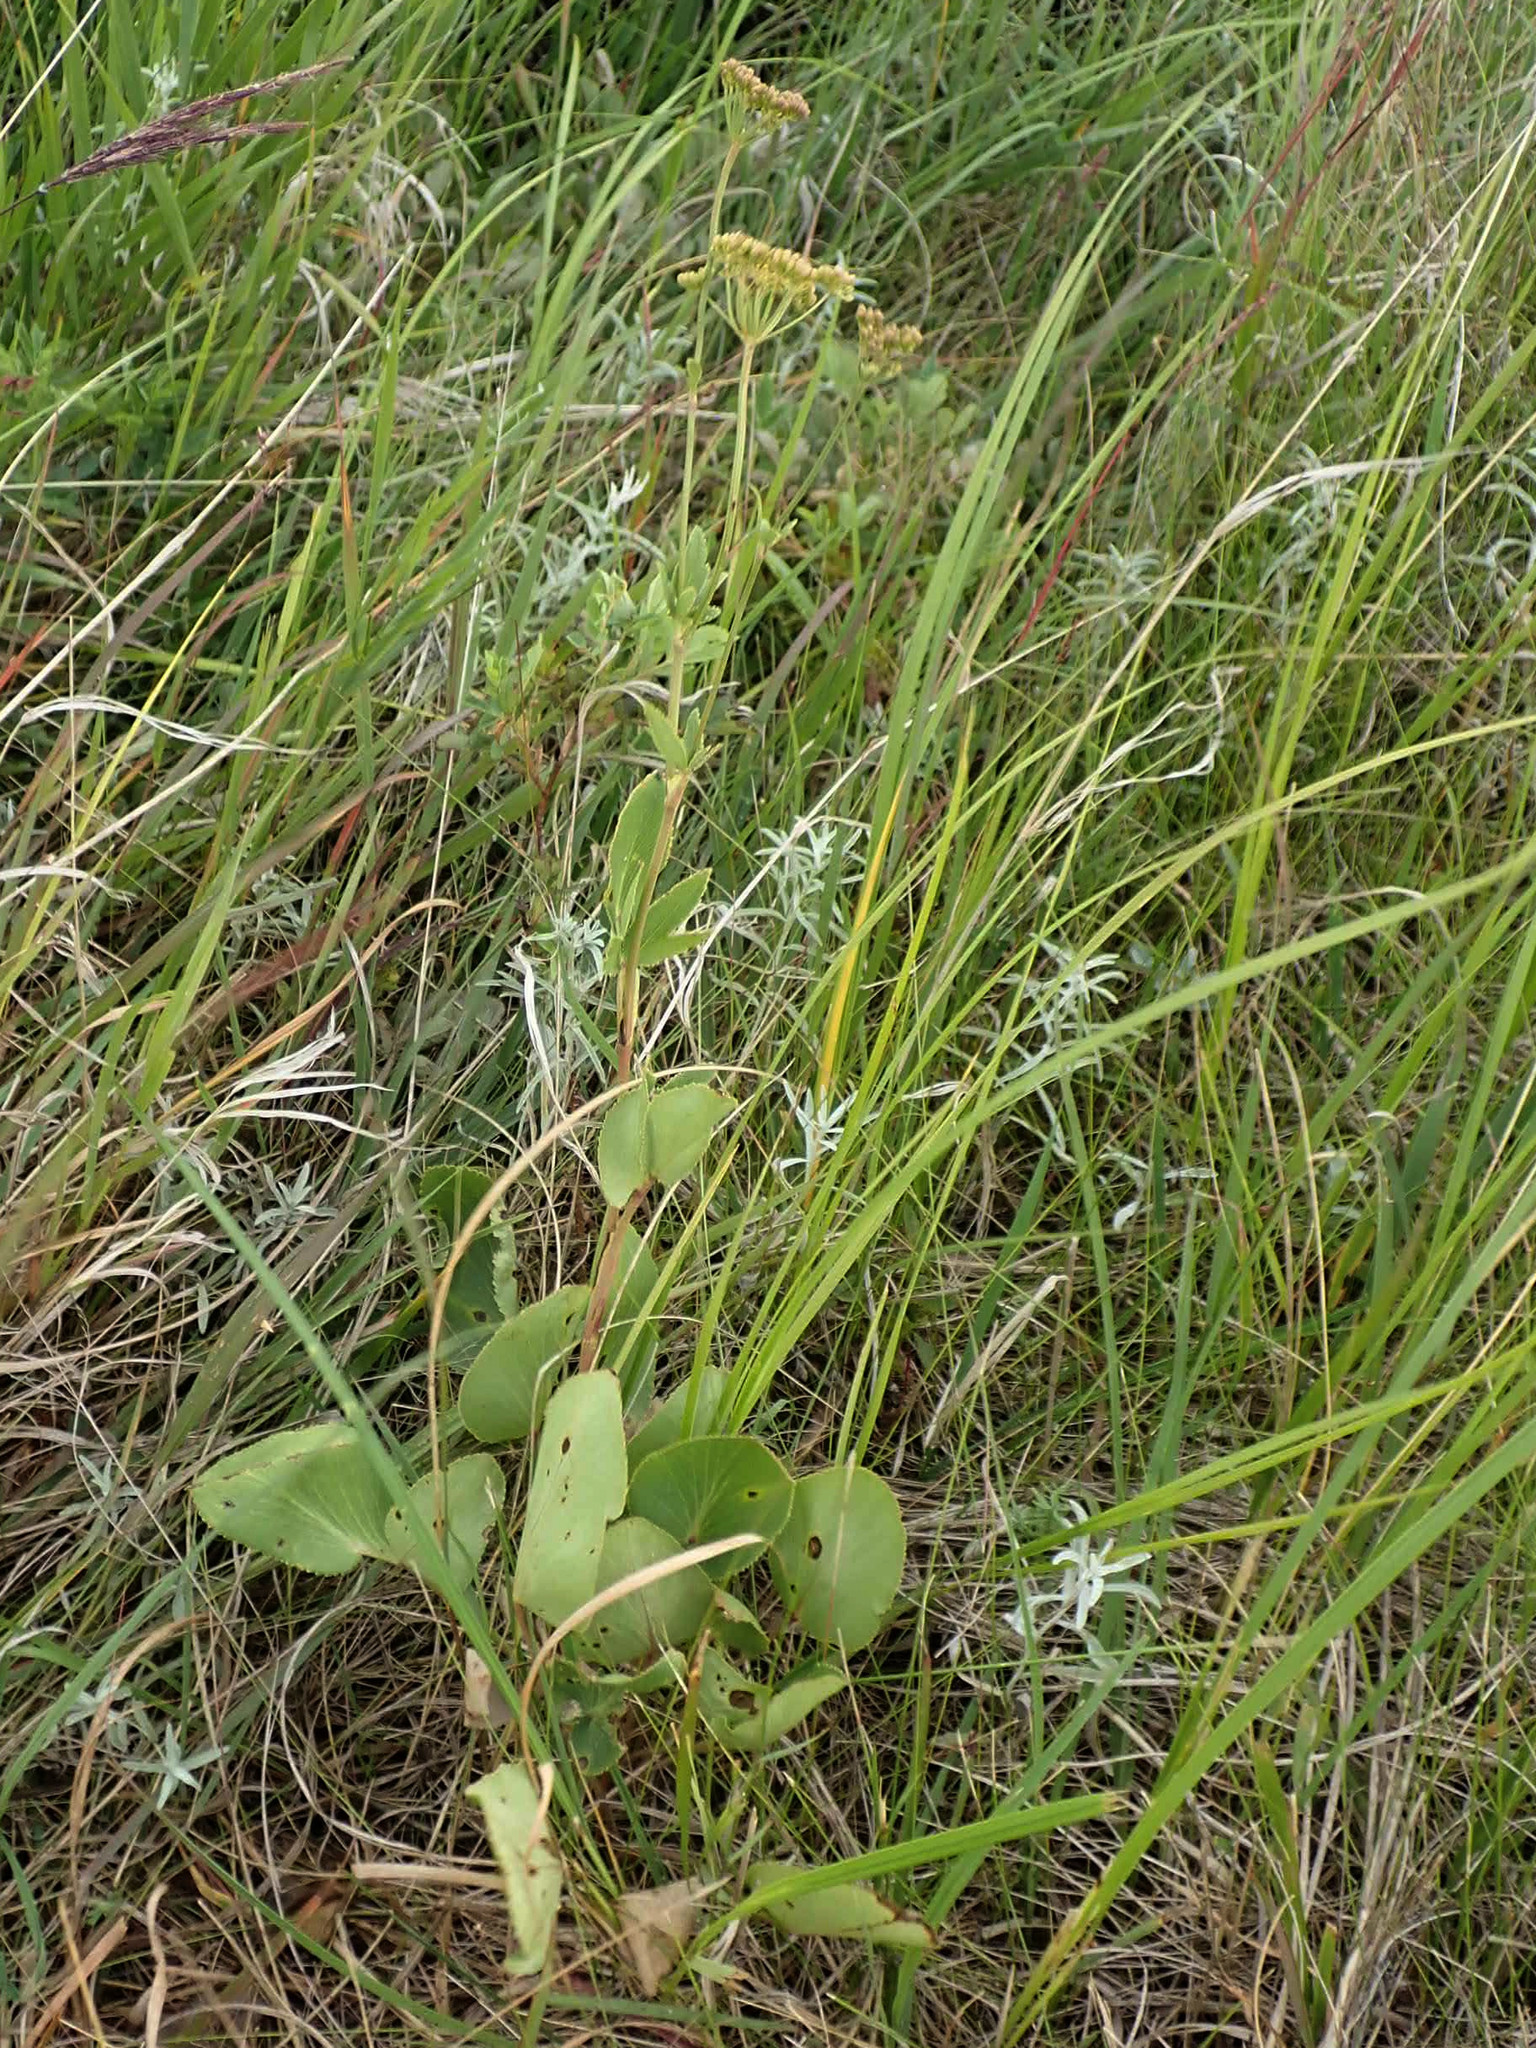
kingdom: Plantae
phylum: Tracheophyta
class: Magnoliopsida
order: Apiales
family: Apiaceae
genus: Zizia
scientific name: Zizia aptera
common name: Heart-leaved alexanders
